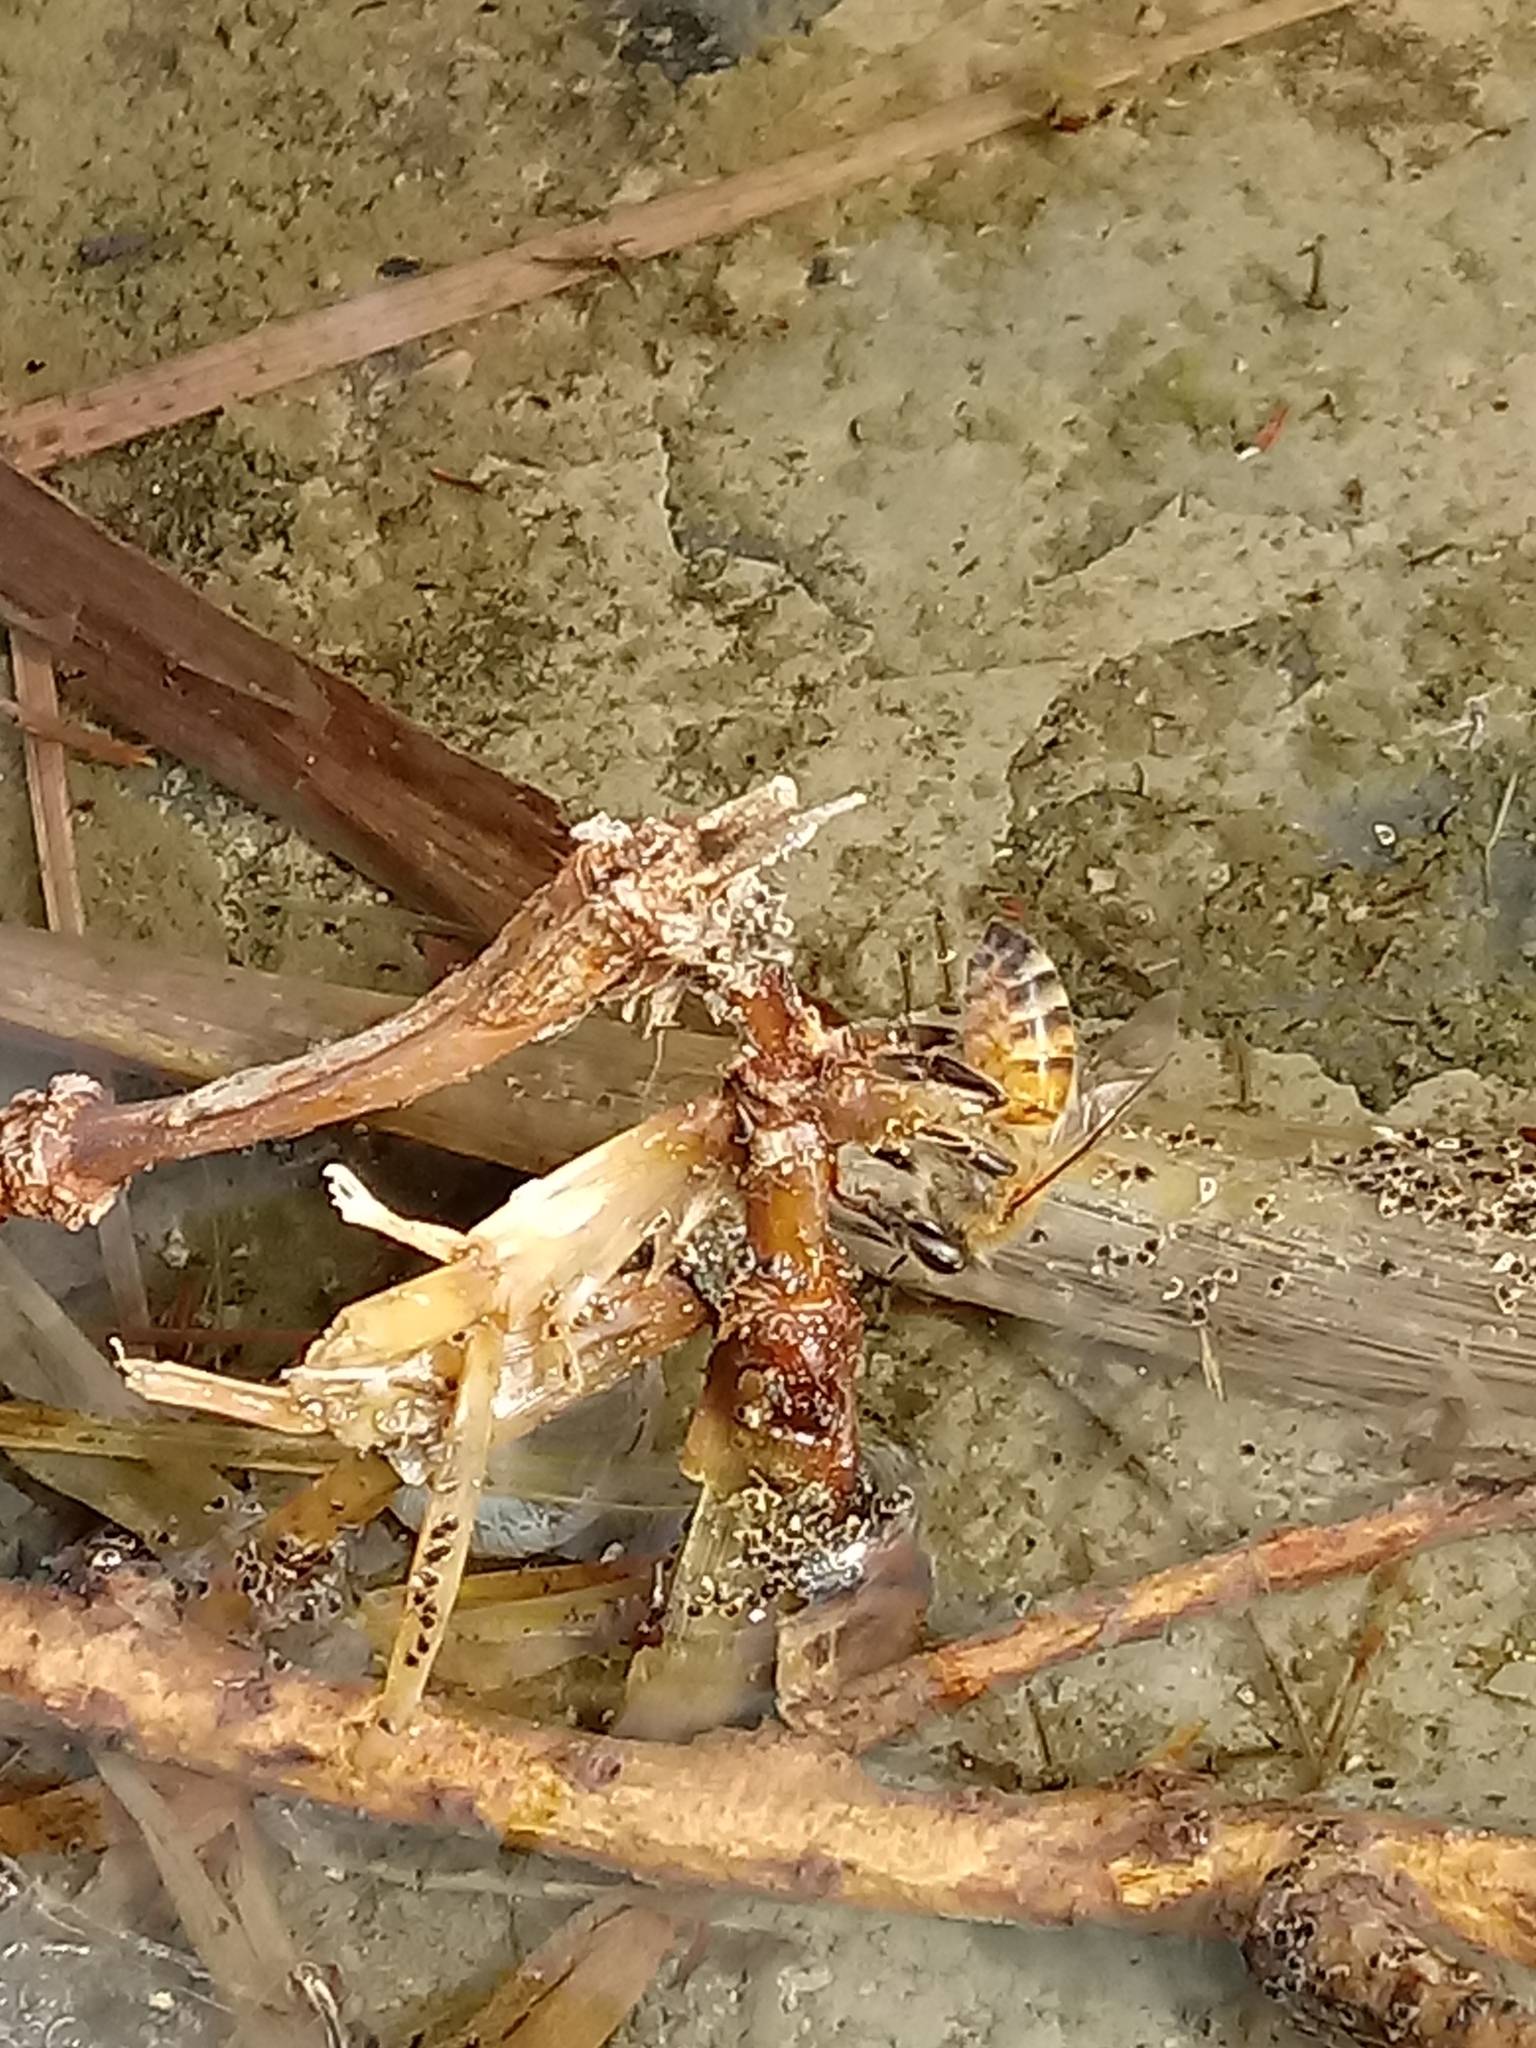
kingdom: Animalia
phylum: Arthropoda
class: Insecta
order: Hymenoptera
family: Apidae
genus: Apis
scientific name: Apis mellifera
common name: Honey bee
